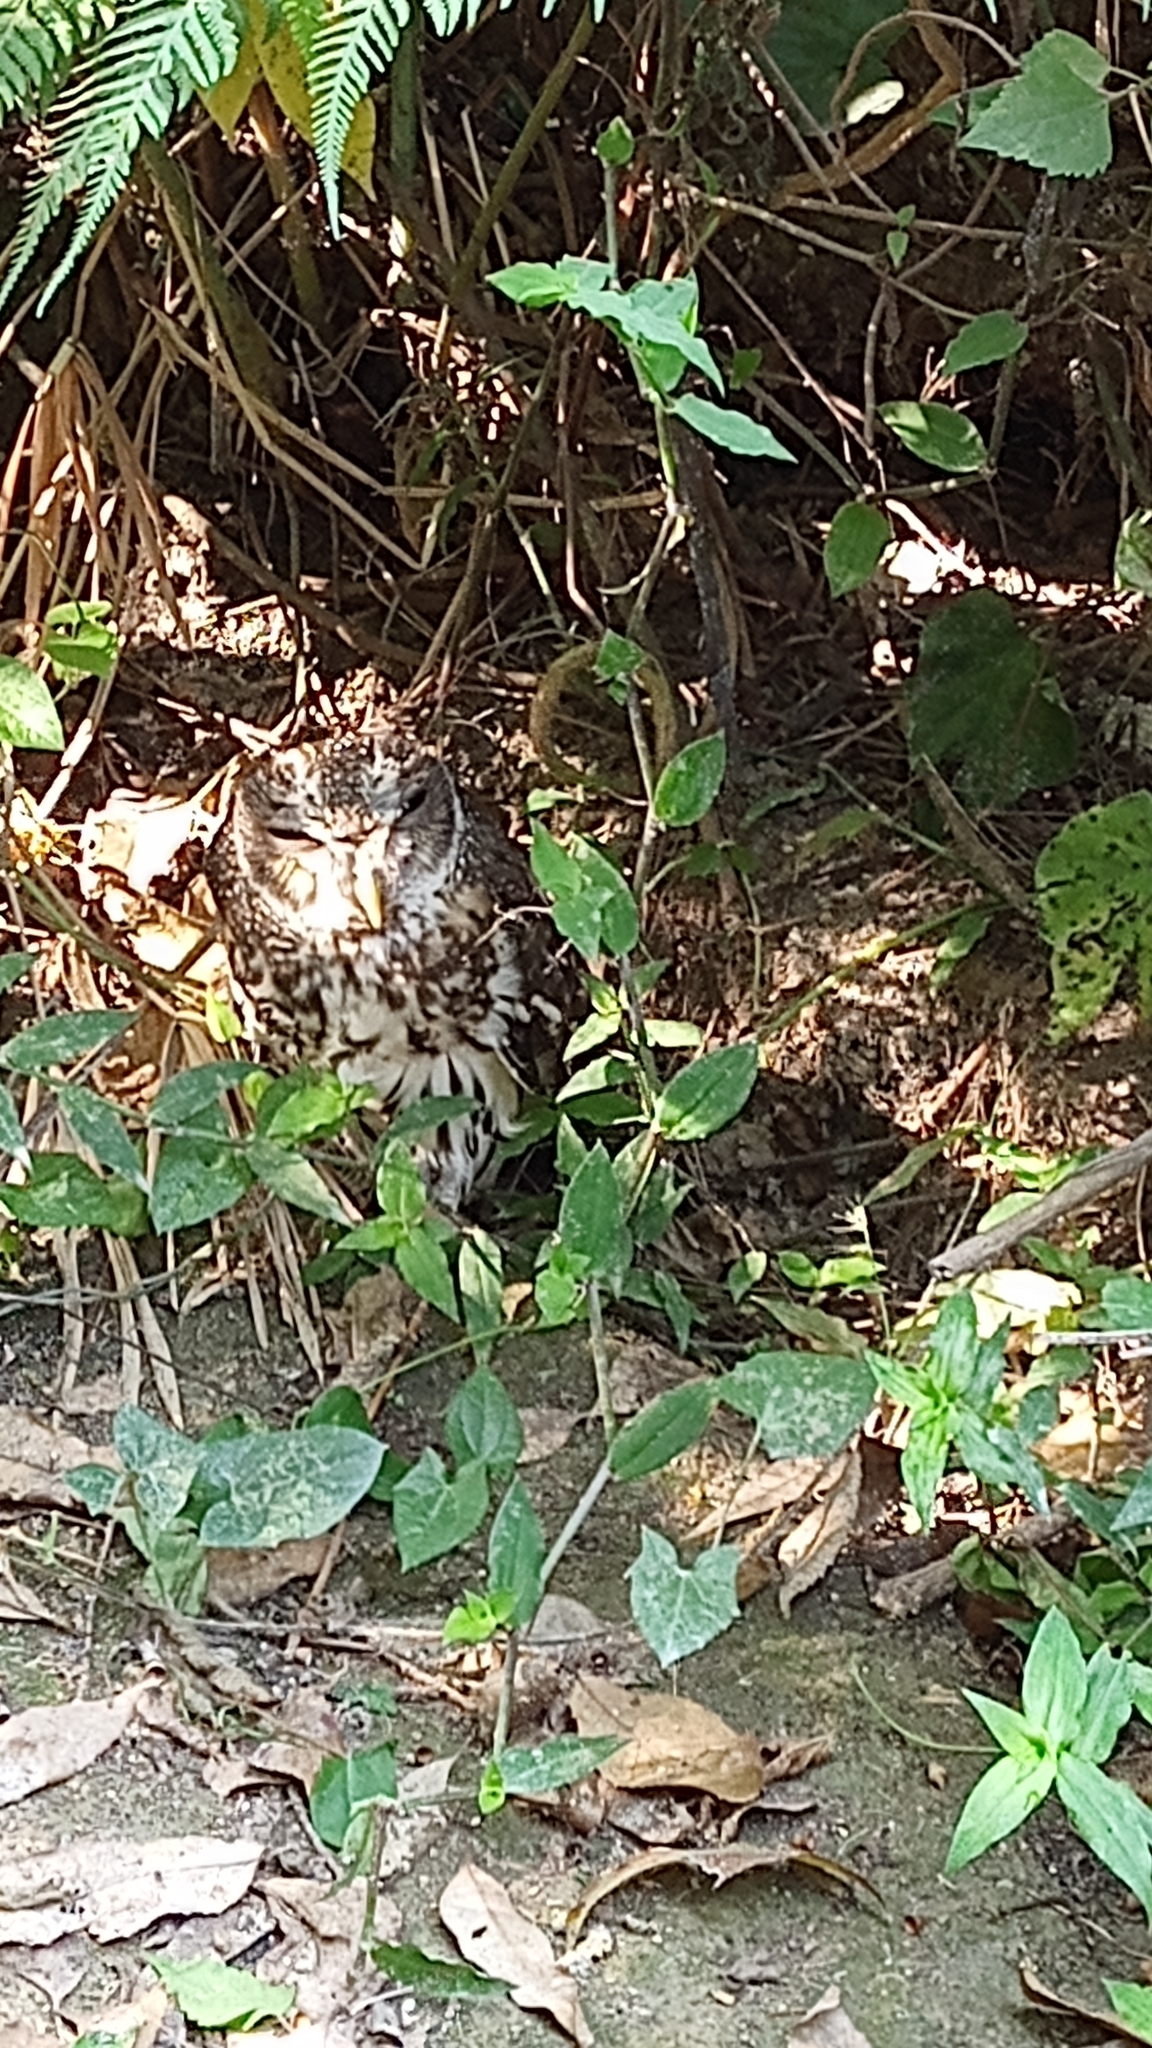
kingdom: Animalia
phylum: Chordata
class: Aves
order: Strigiformes
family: Strigidae
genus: Strix
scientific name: Strix virgata
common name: Mottled owl
